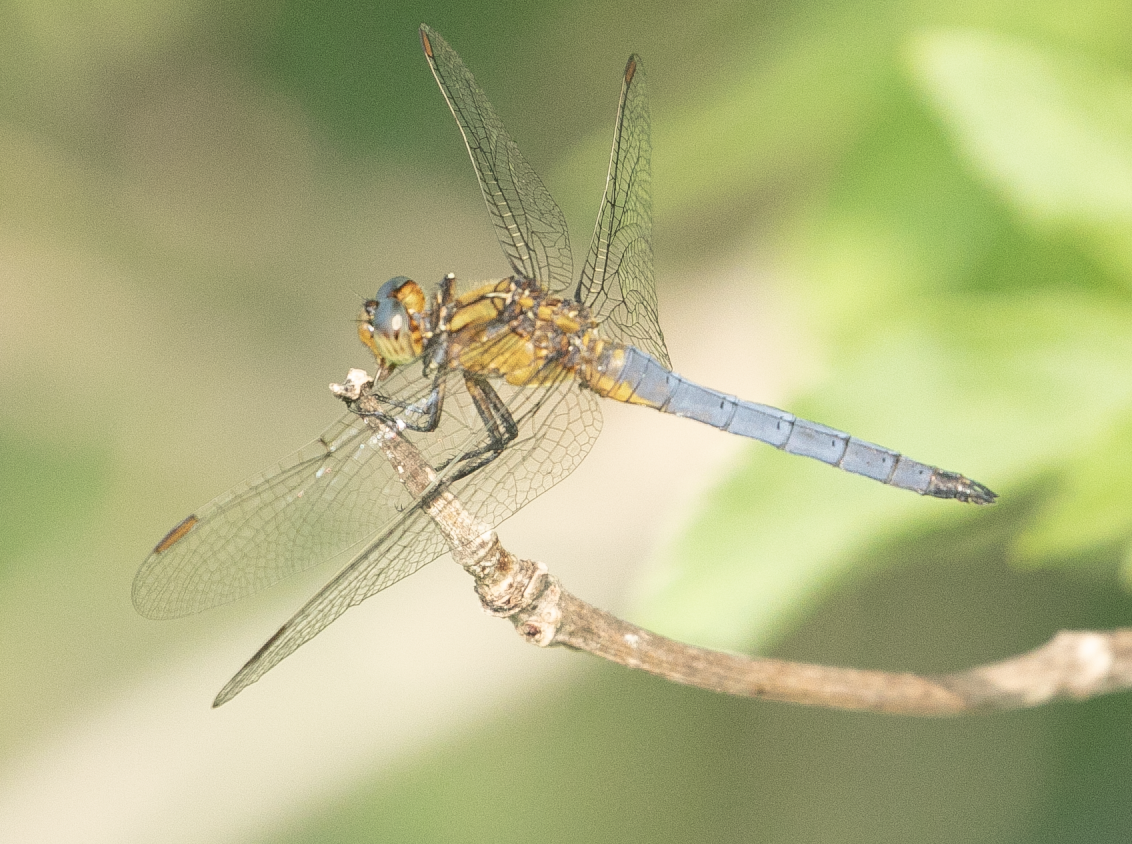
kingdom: Animalia
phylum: Arthropoda
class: Insecta
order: Odonata
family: Libellulidae
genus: Orthetrum
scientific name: Orthetrum coerulescens
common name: Keeled skimmer
